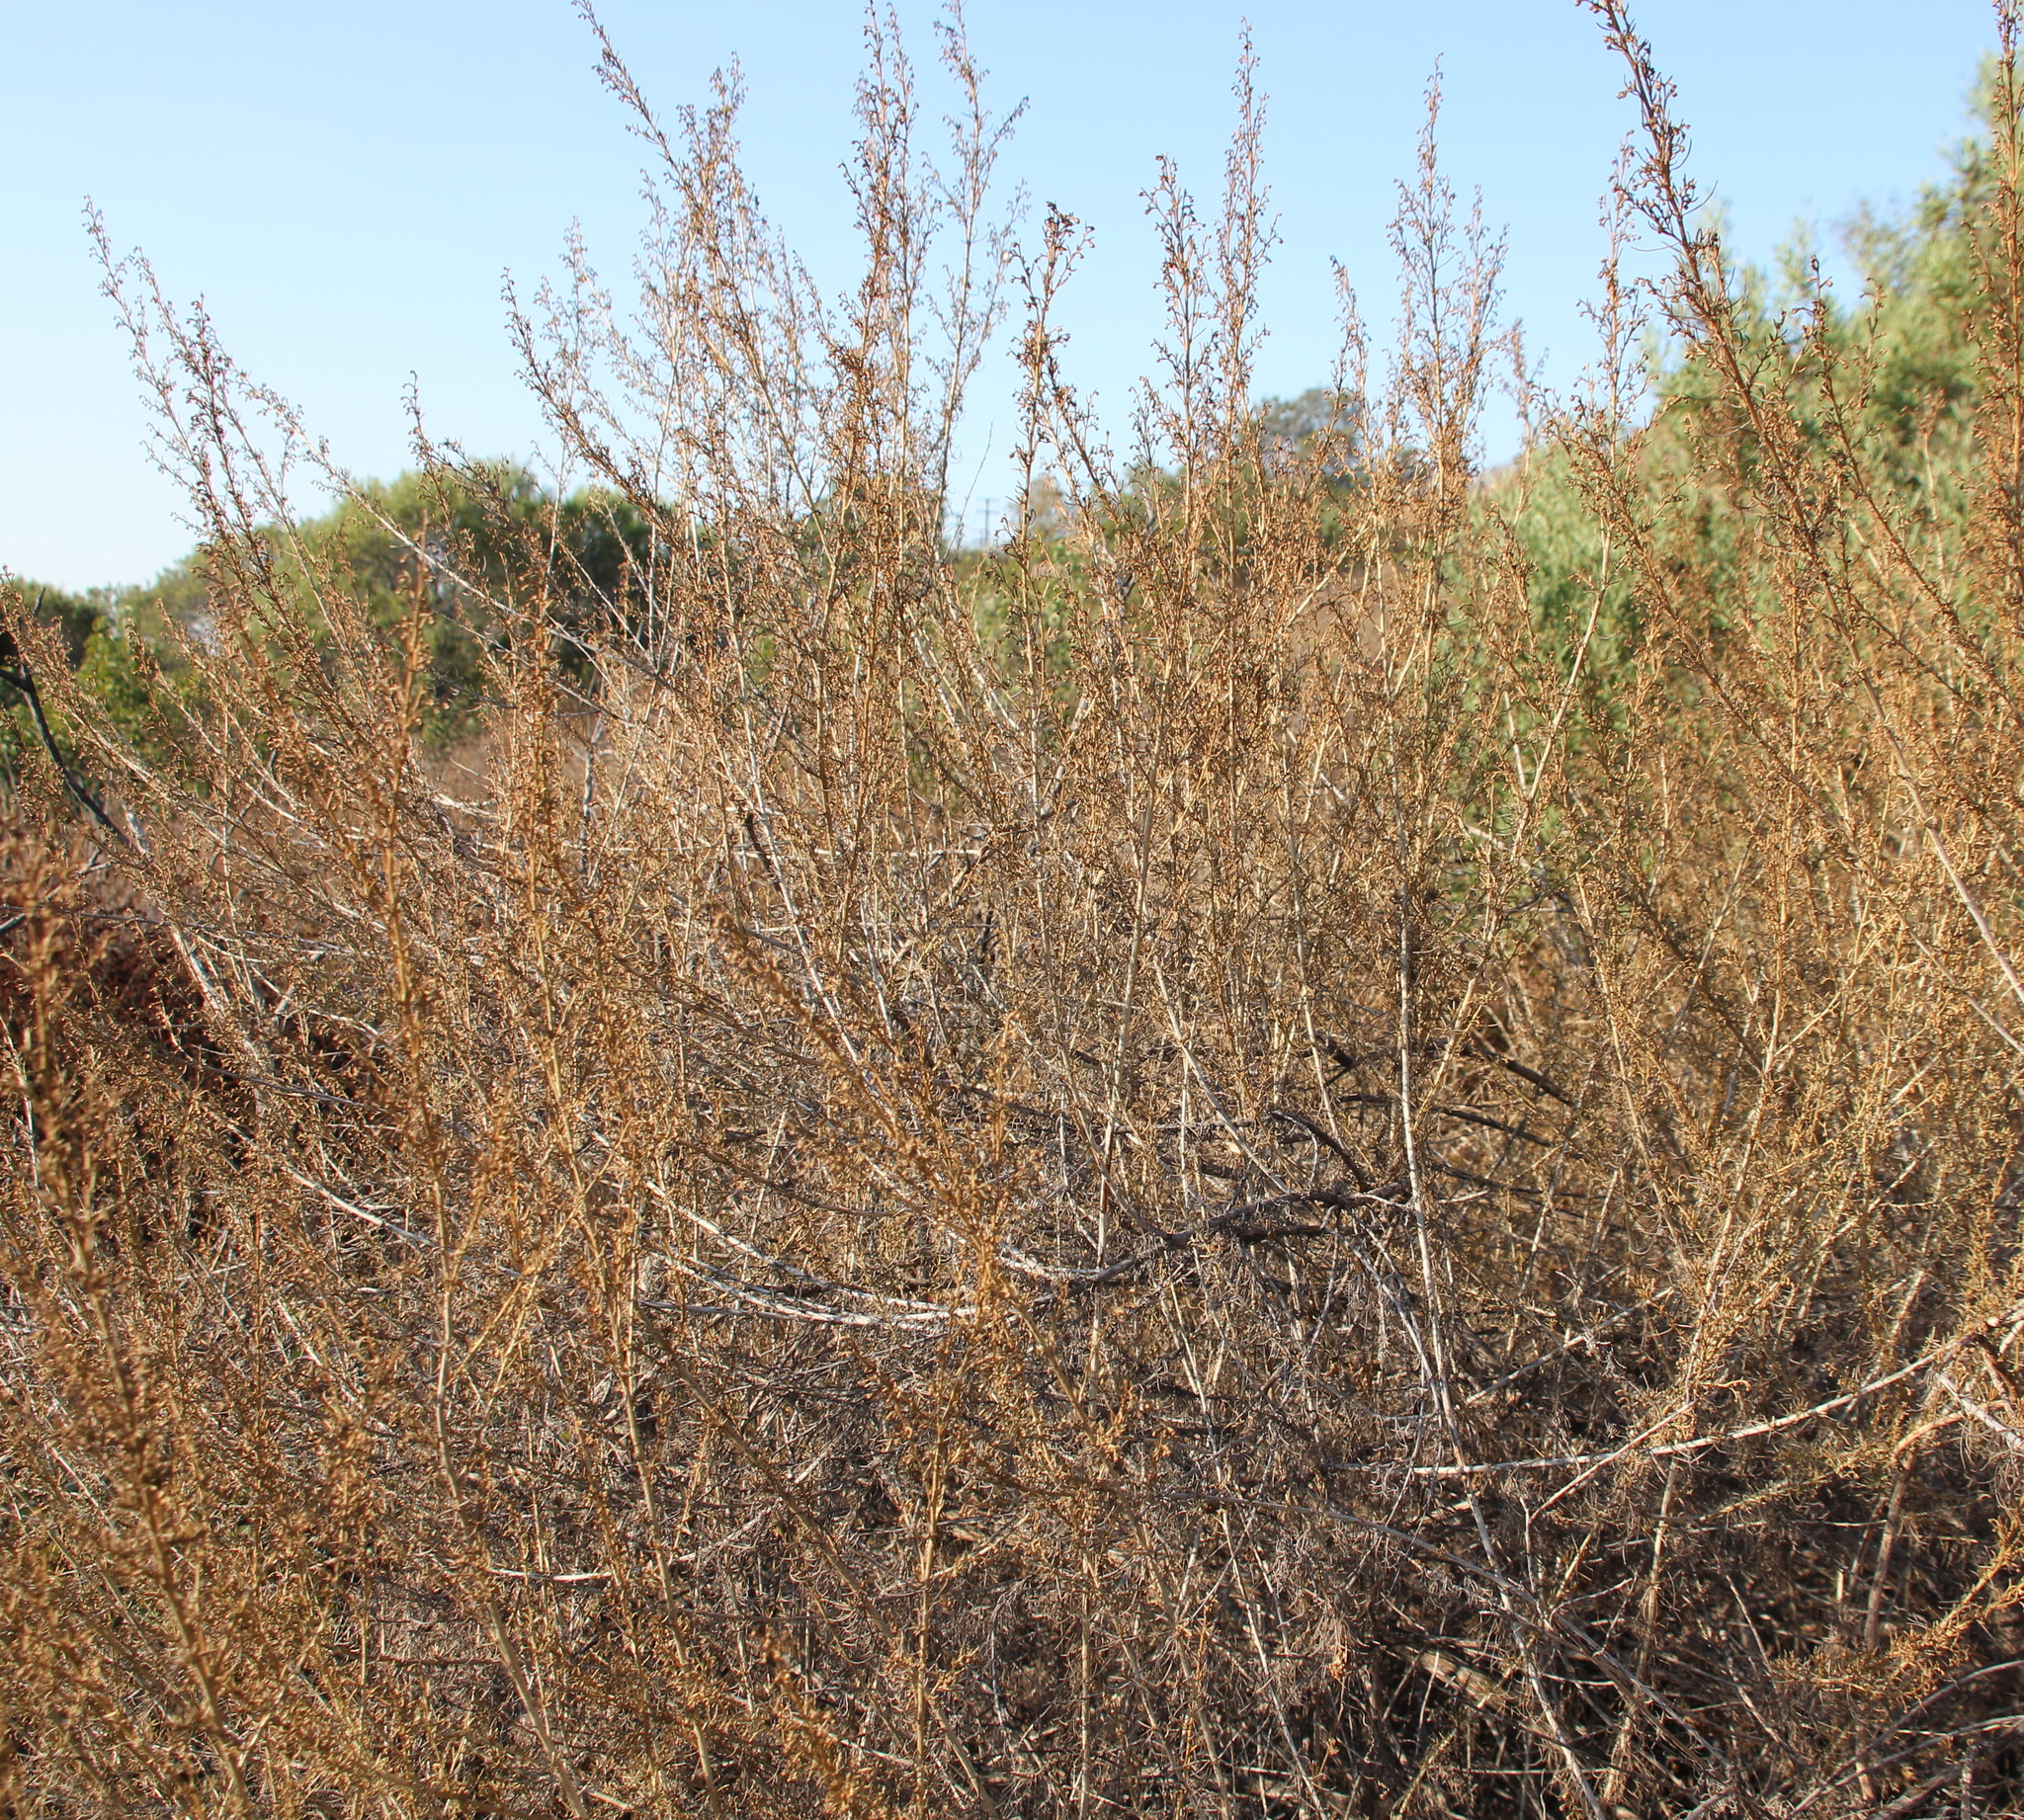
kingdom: Plantae
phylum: Tracheophyta
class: Magnoliopsida
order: Asterales
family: Asteraceae
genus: Artemisia
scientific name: Artemisia californica
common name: California sagebrush
